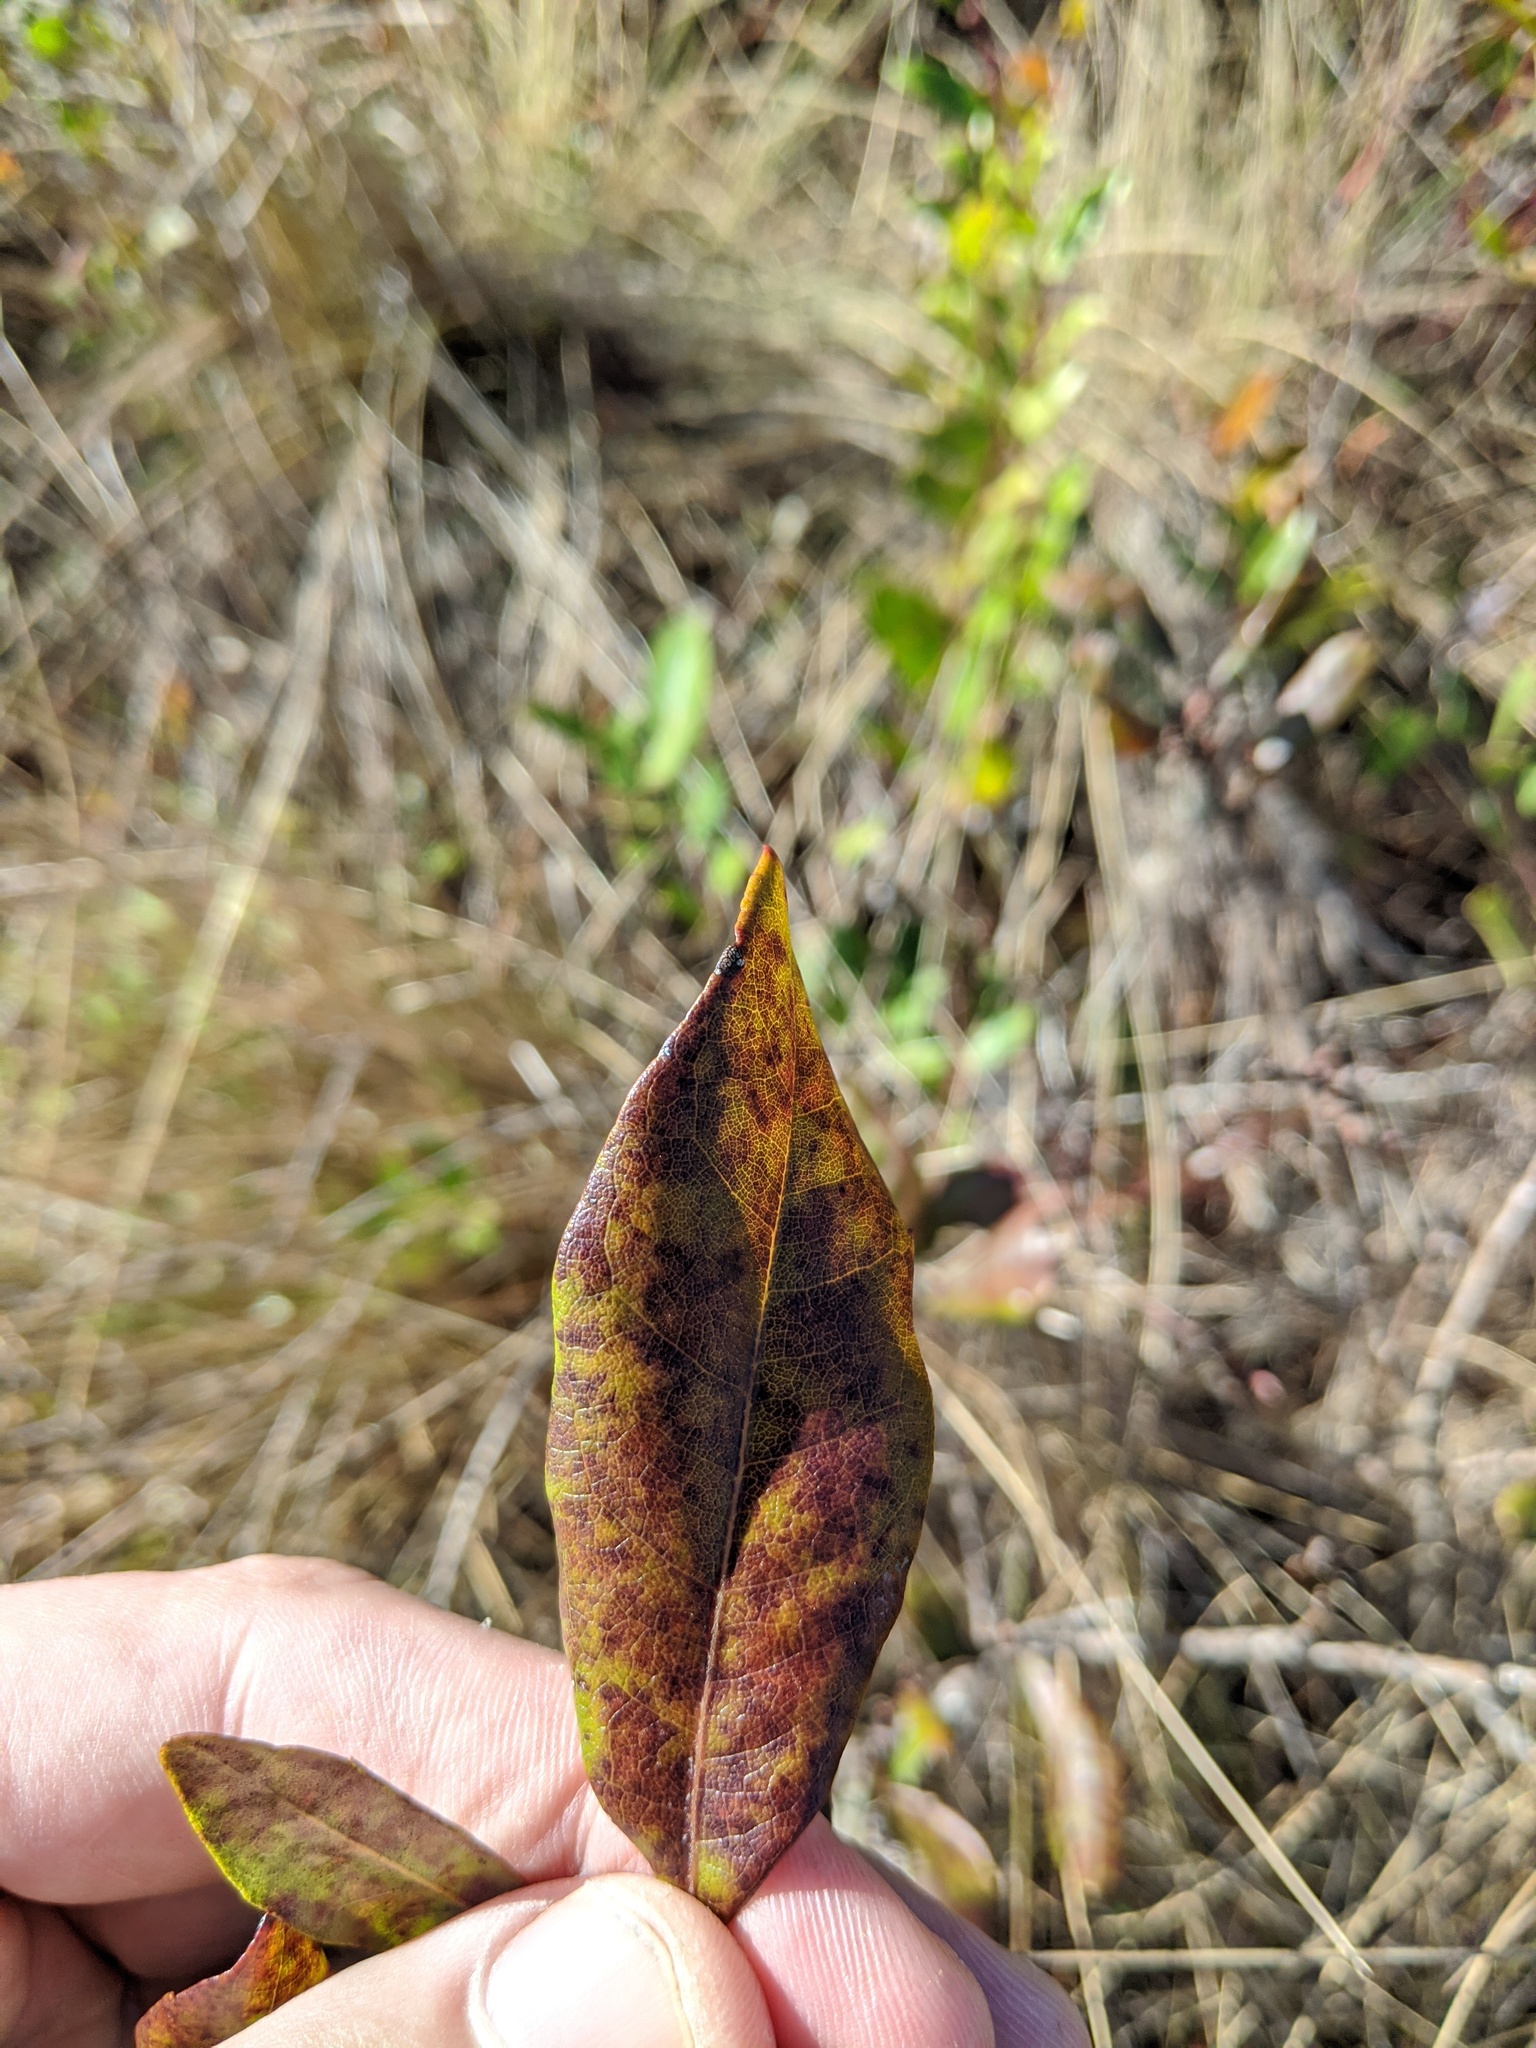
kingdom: Plantae
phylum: Tracheophyta
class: Magnoliopsida
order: Fagales
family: Myricaceae
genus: Morella
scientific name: Morella caroliniensis
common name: Evergreen bayberry
